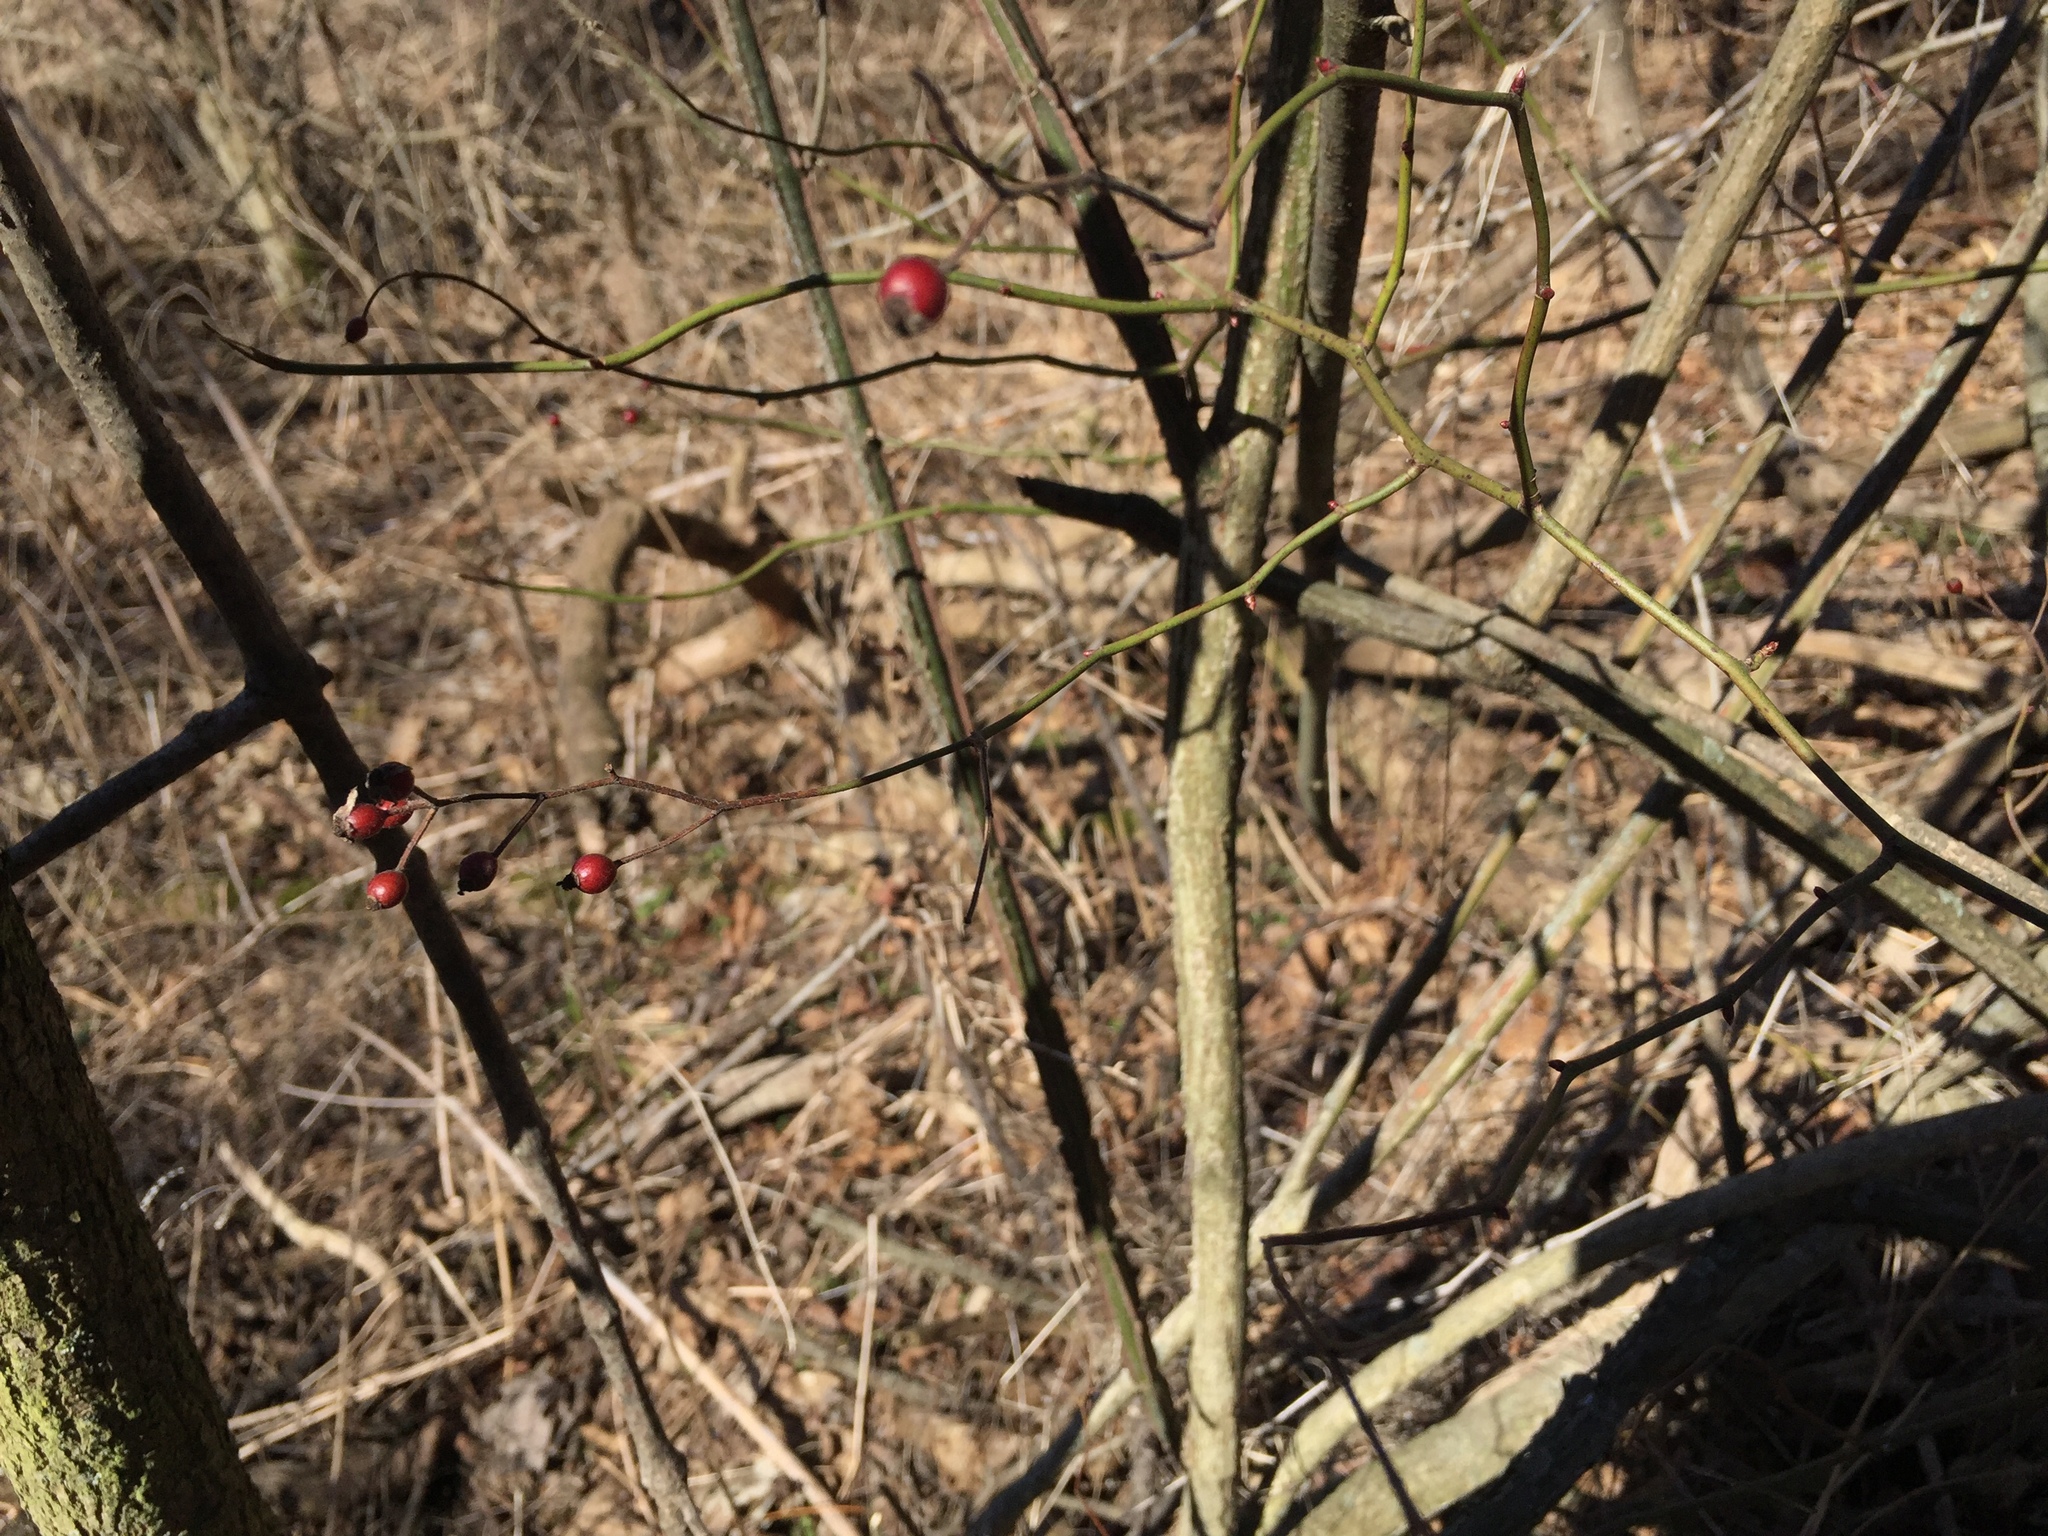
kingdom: Plantae
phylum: Tracheophyta
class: Magnoliopsida
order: Rosales
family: Rosaceae
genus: Rosa
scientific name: Rosa multiflora
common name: Multiflora rose
